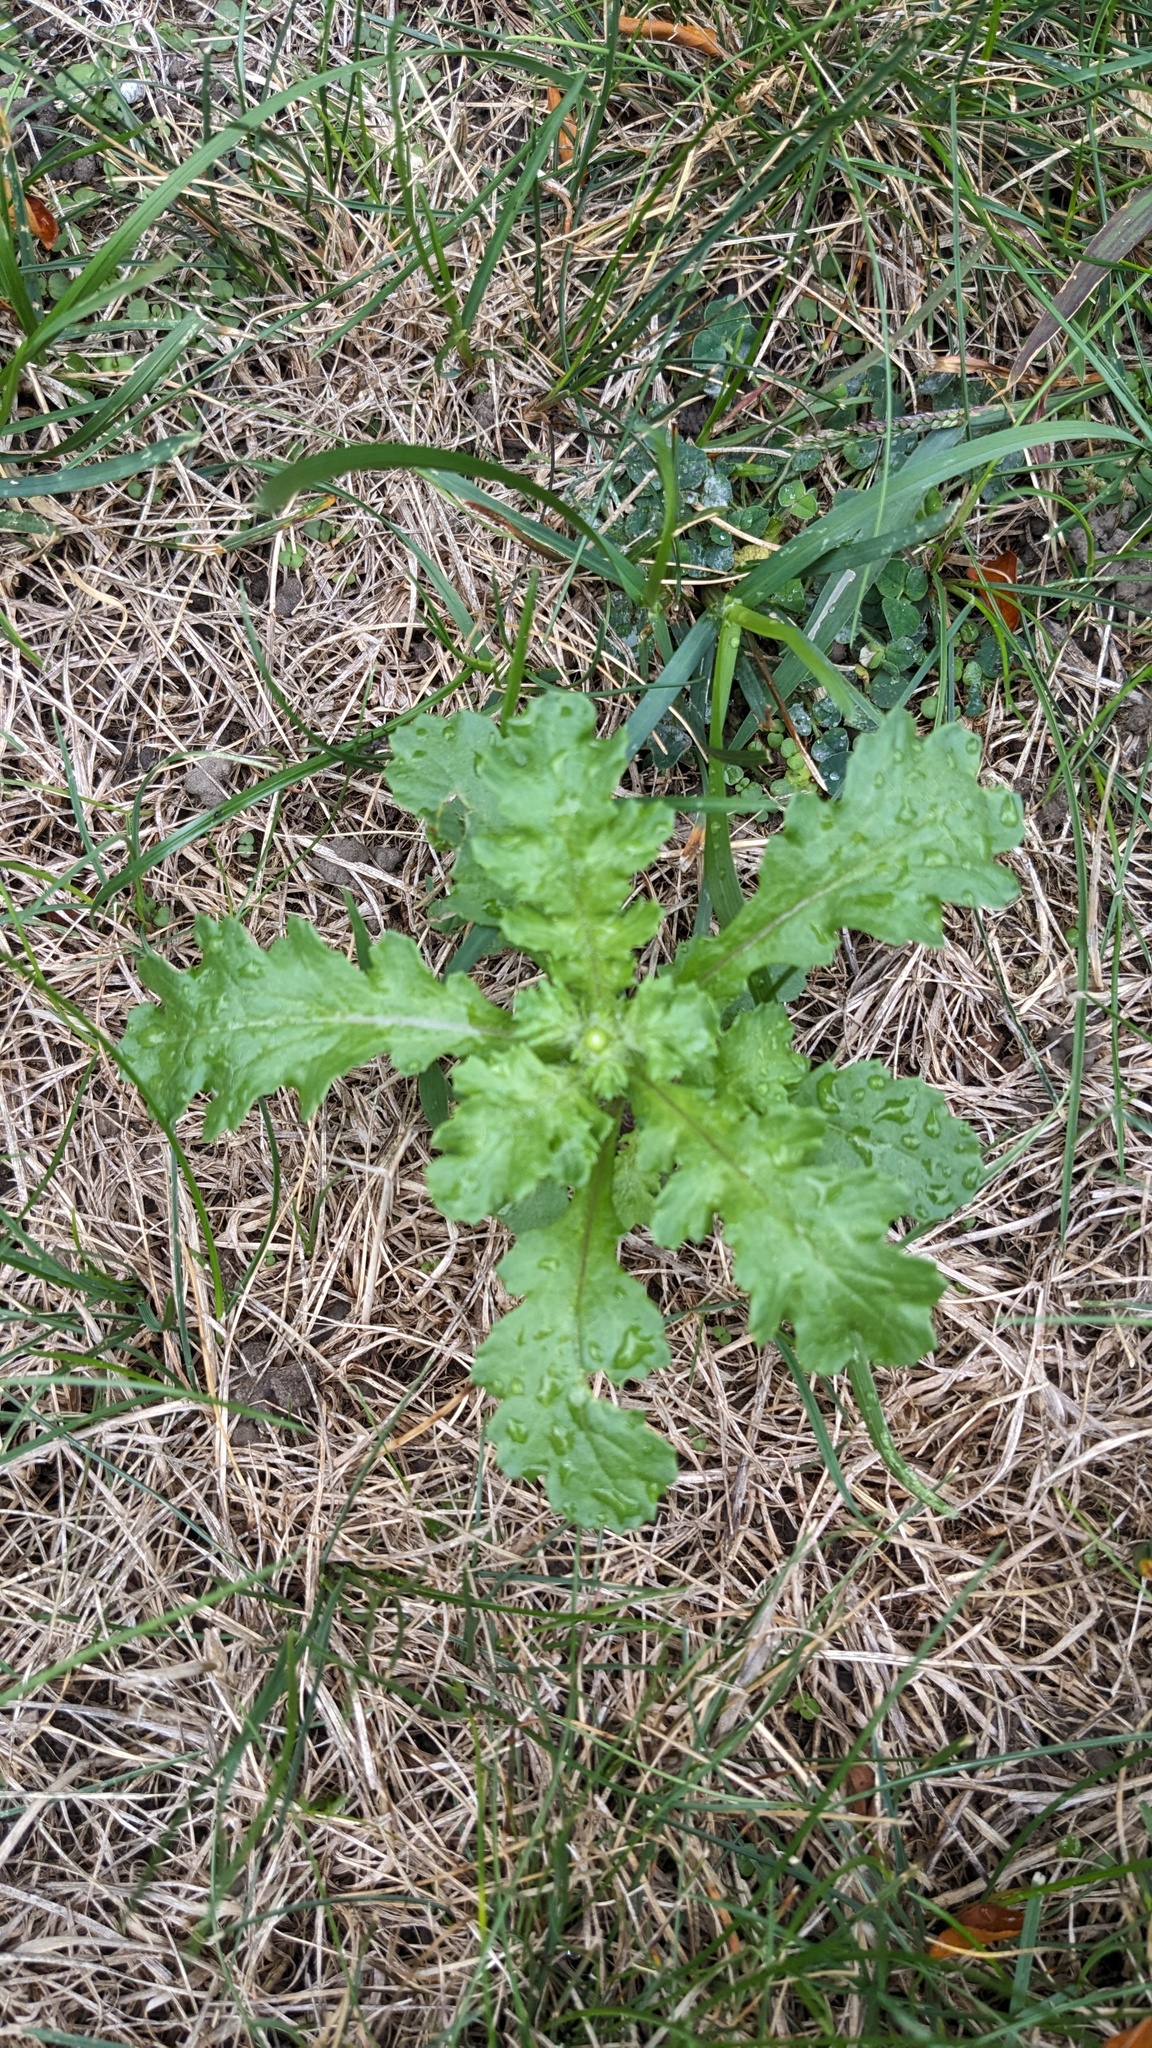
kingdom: Plantae
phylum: Tracheophyta
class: Magnoliopsida
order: Asterales
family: Asteraceae
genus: Senecio
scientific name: Senecio vulgaris
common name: Old-man-in-the-spring
